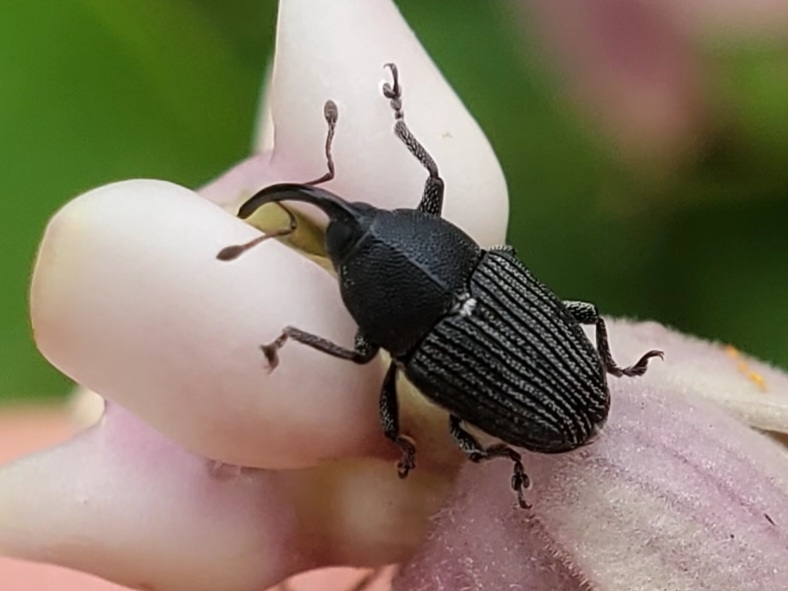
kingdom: Animalia
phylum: Arthropoda
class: Insecta
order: Coleoptera
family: Curculionidae
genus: Odontocorynus
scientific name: Odontocorynus salebrosus
